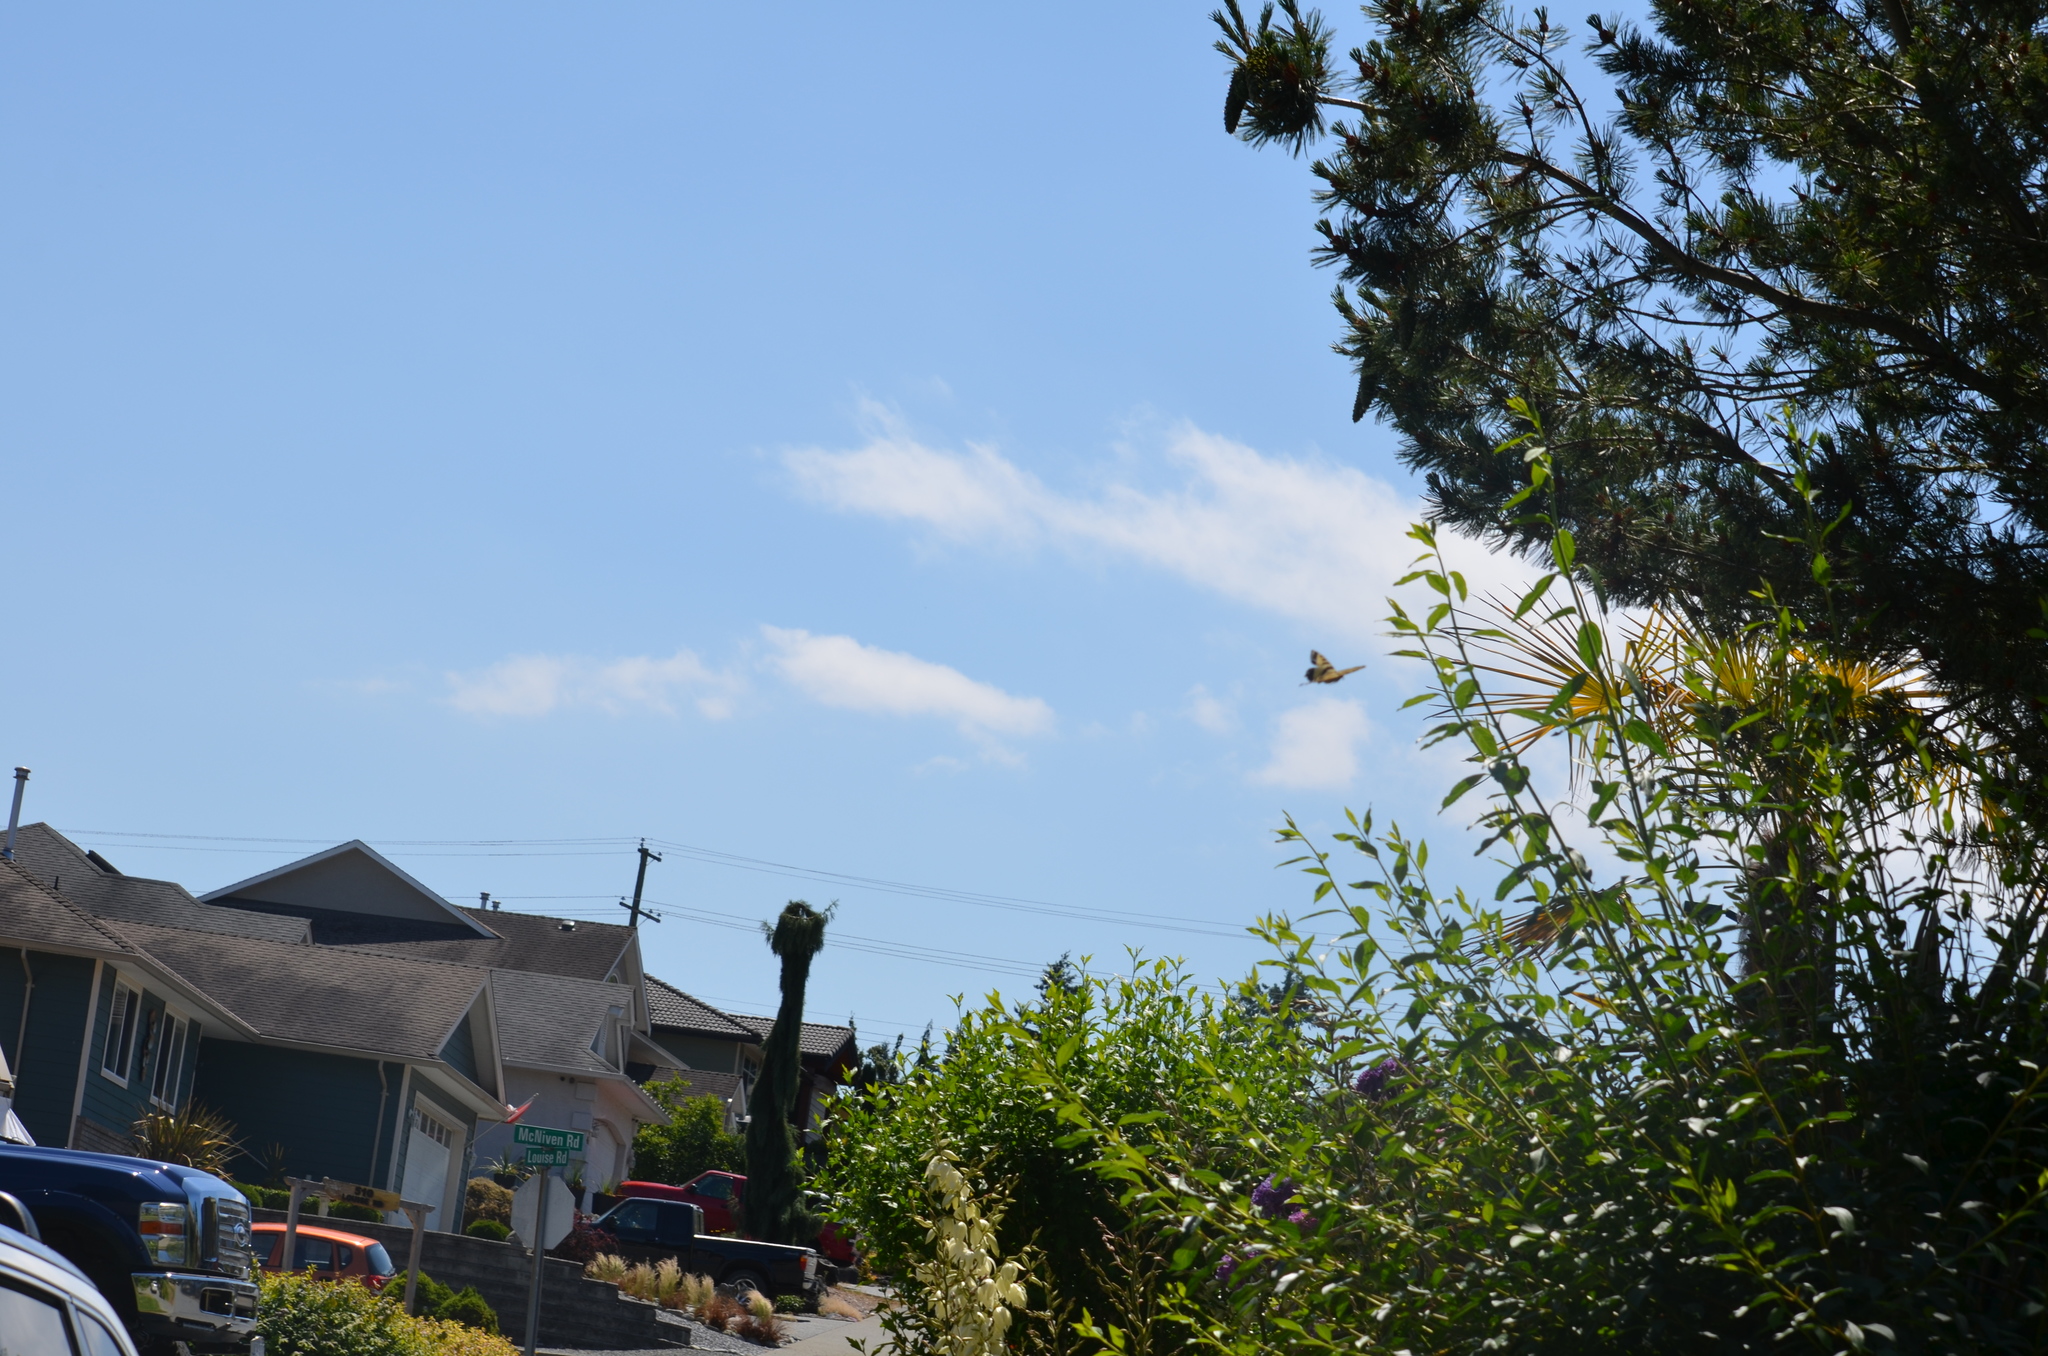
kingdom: Animalia
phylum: Arthropoda
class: Insecta
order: Lepidoptera
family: Papilionidae
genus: Papilio
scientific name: Papilio rutulus
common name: Western tiger swallowtail
